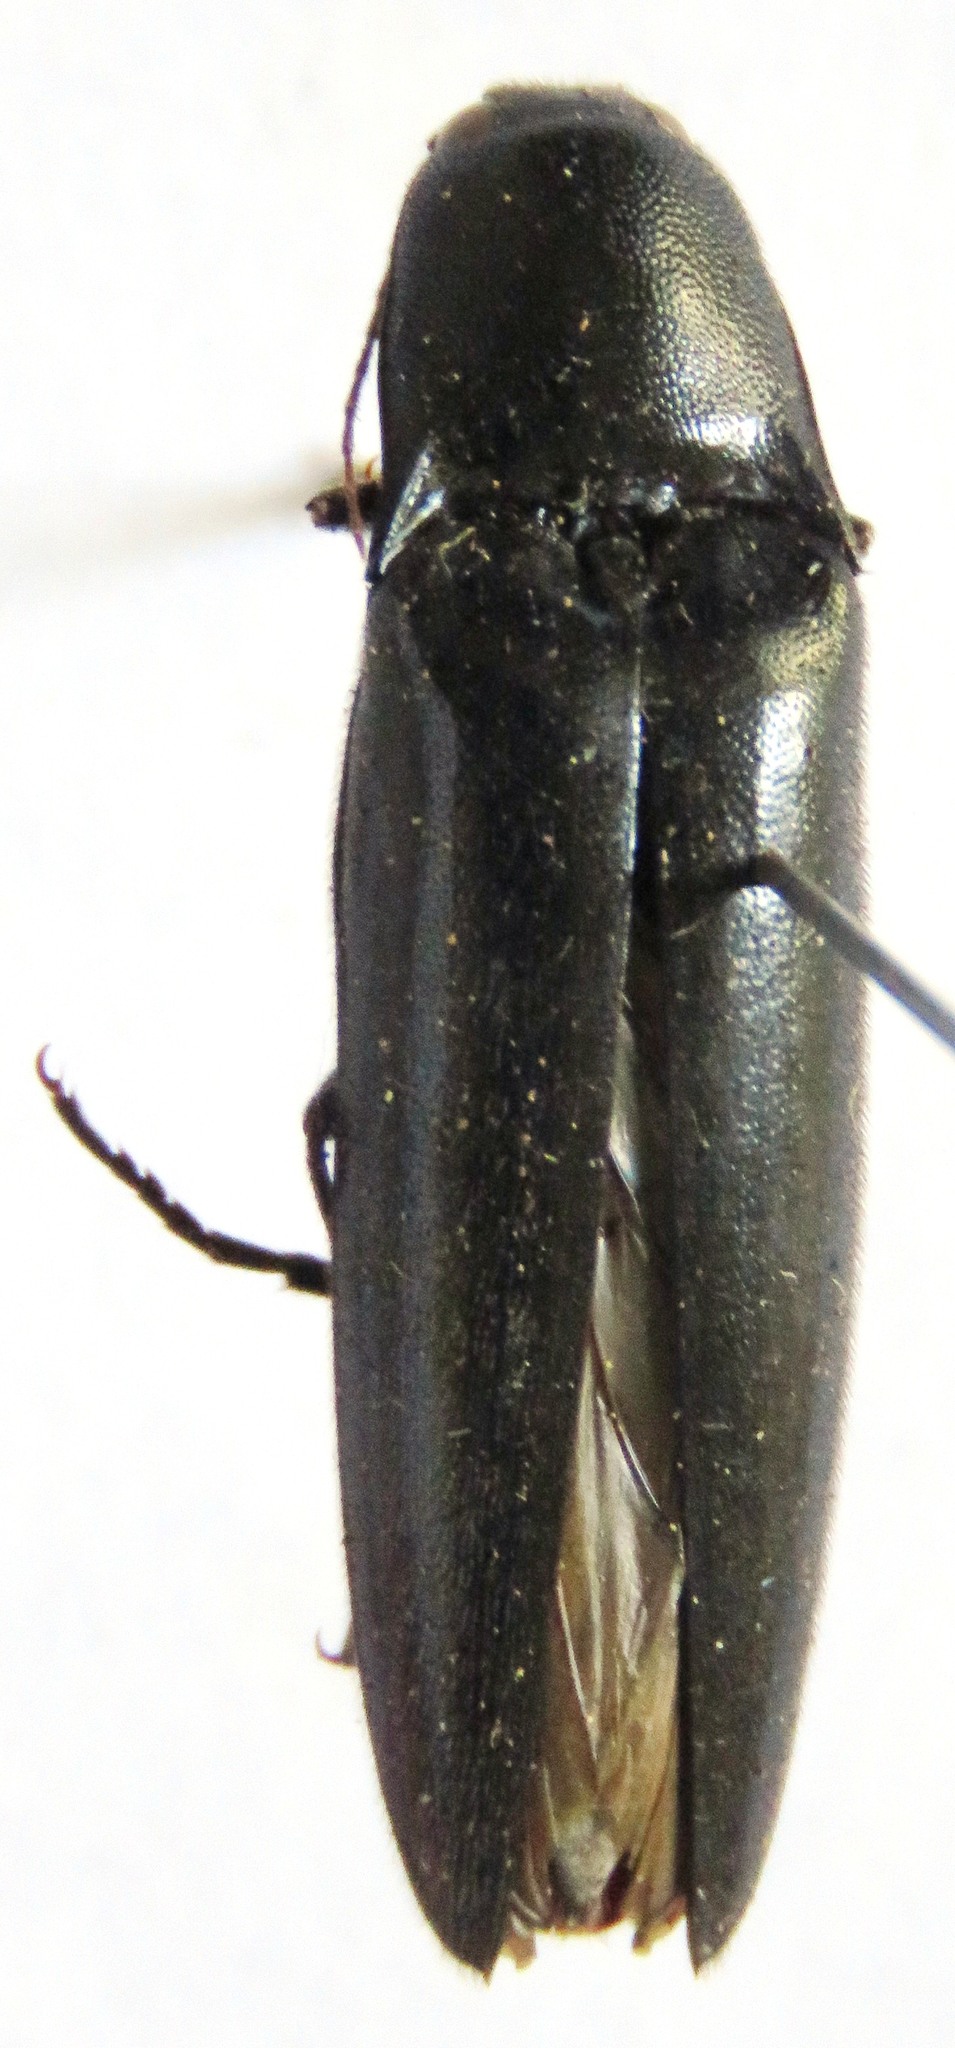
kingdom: Animalia
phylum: Arthropoda
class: Insecta
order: Coleoptera
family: Elateridae
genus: Orthostethus
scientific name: Orthostethus
